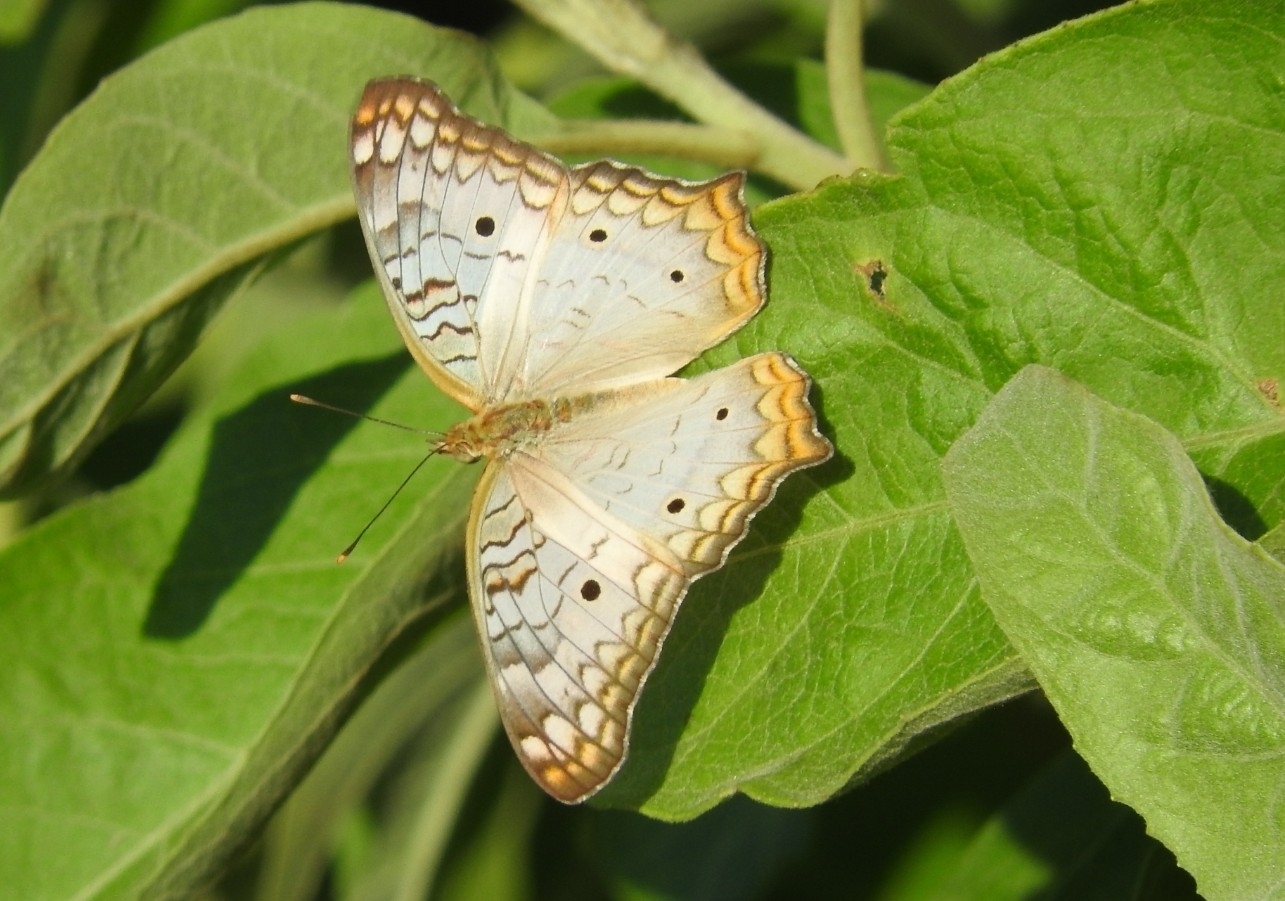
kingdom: Animalia
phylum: Arthropoda
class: Insecta
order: Lepidoptera
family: Nymphalidae
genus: Anartia
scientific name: Anartia jatrophae
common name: White peacock
